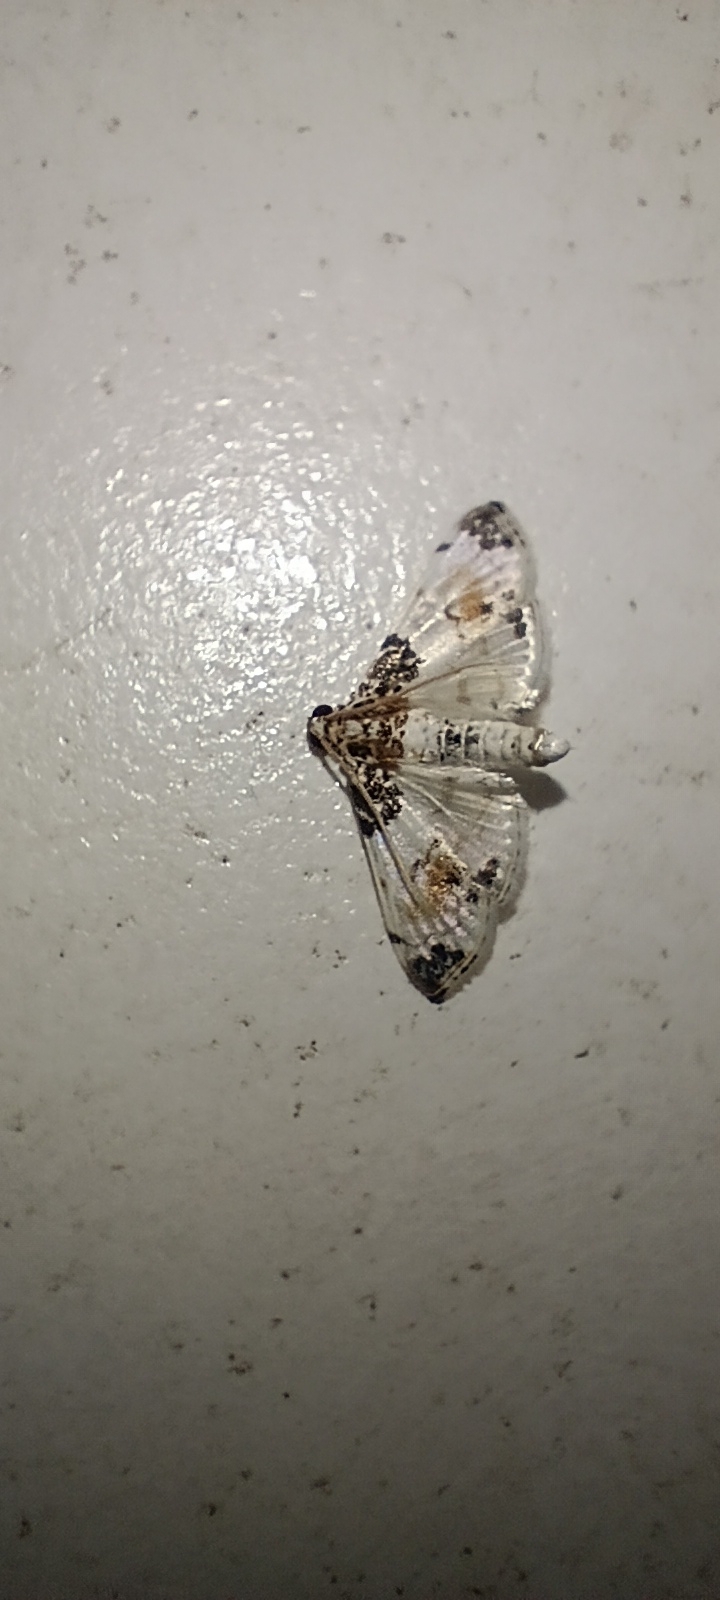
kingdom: Animalia
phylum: Arthropoda
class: Insecta
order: Lepidoptera
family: Crambidae
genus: Analyta
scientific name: Analyta calligrammalis
